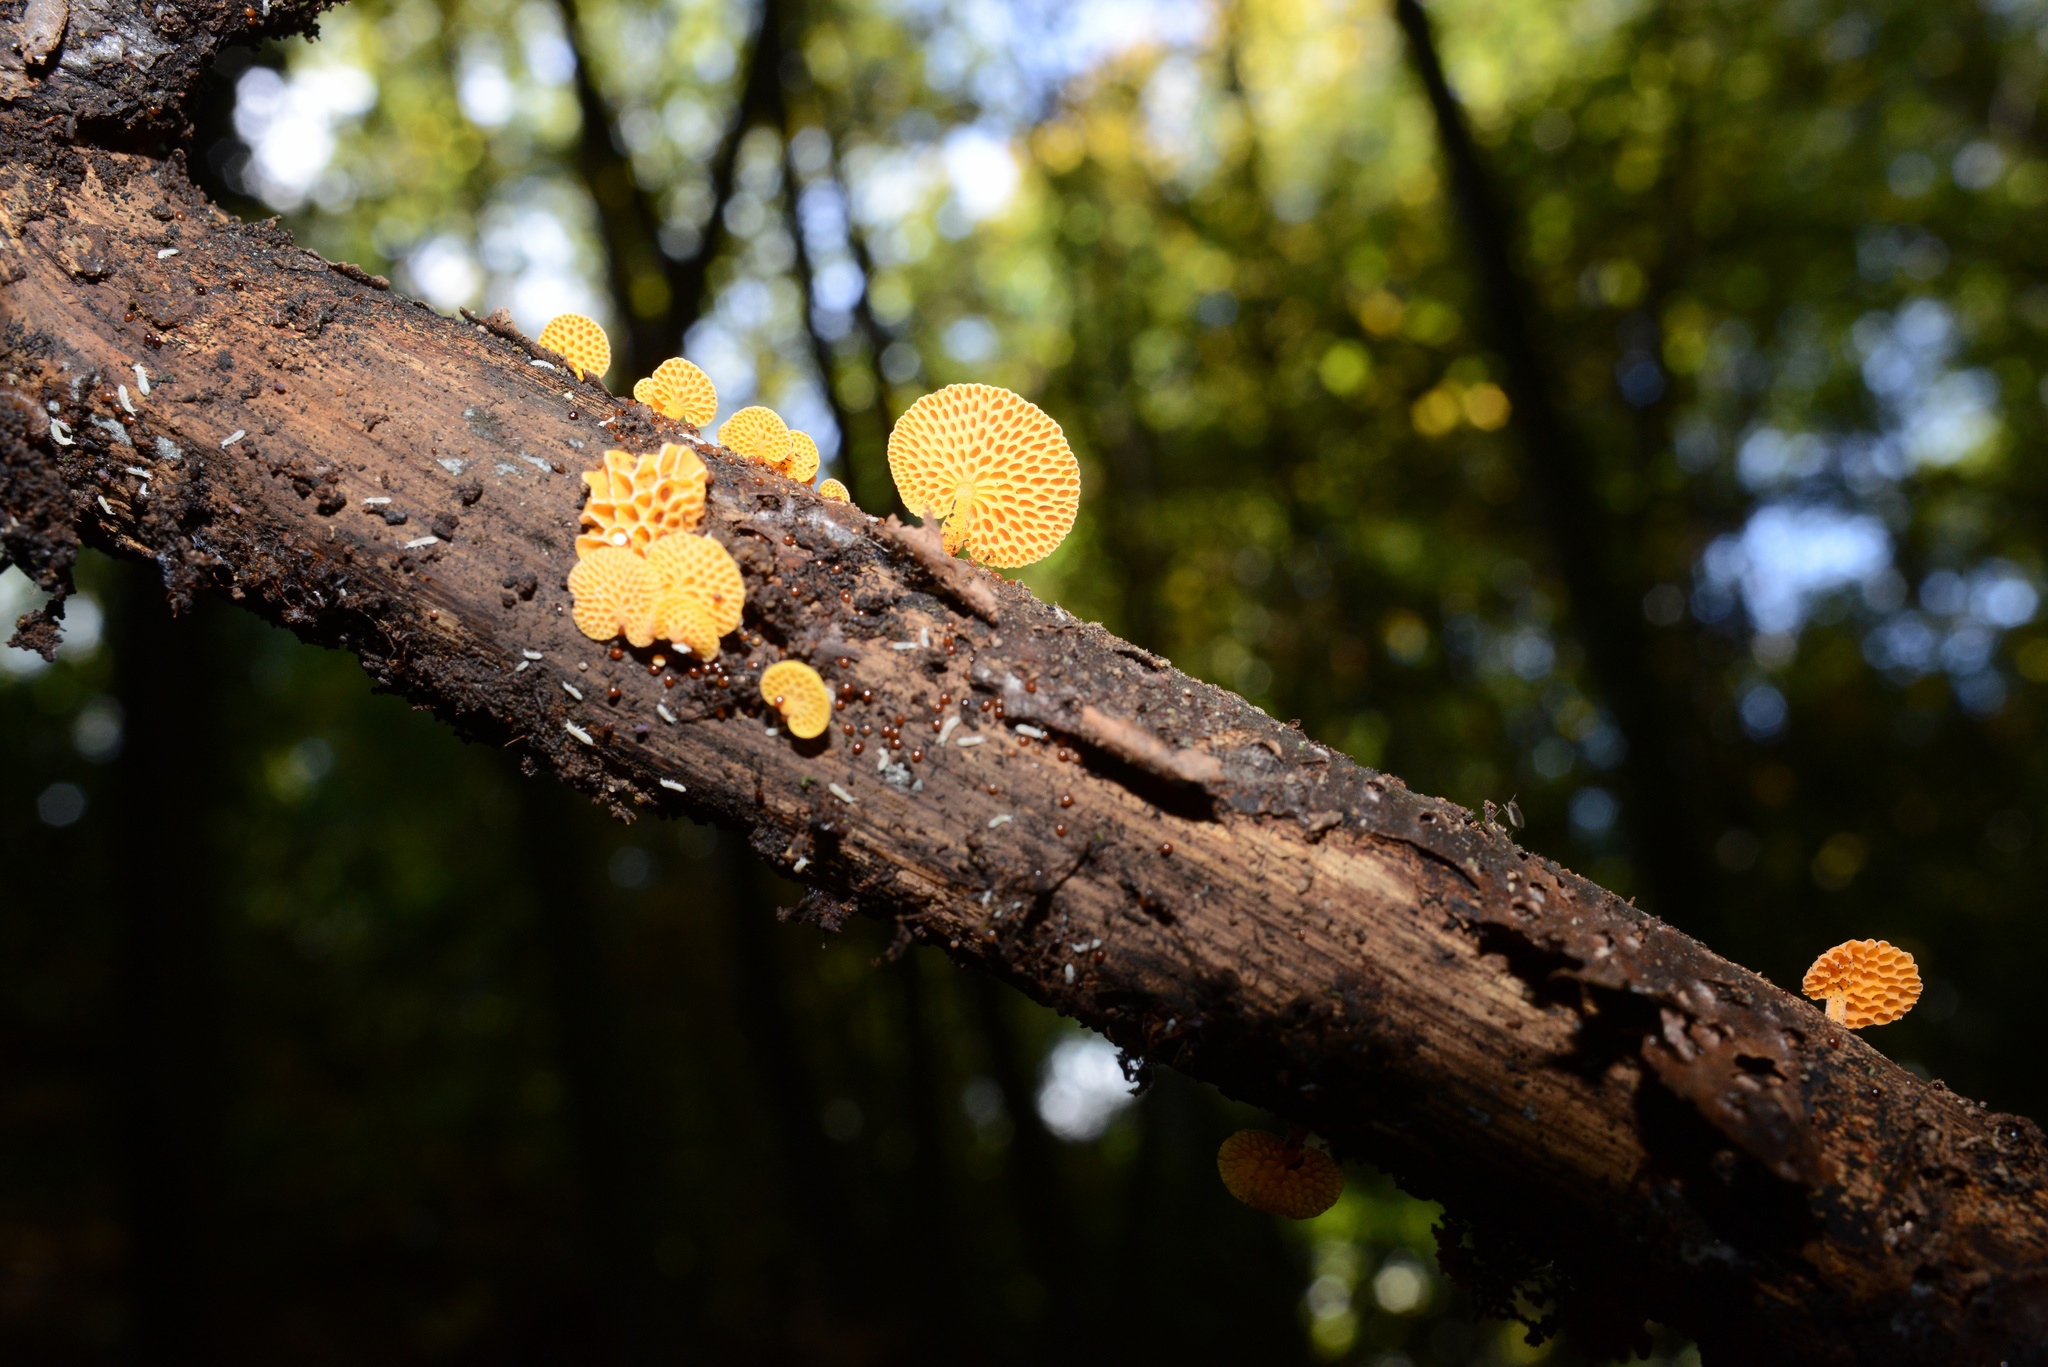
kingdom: Fungi
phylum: Basidiomycota
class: Agaricomycetes
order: Agaricales
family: Mycenaceae
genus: Favolaschia
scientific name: Favolaschia claudopus
